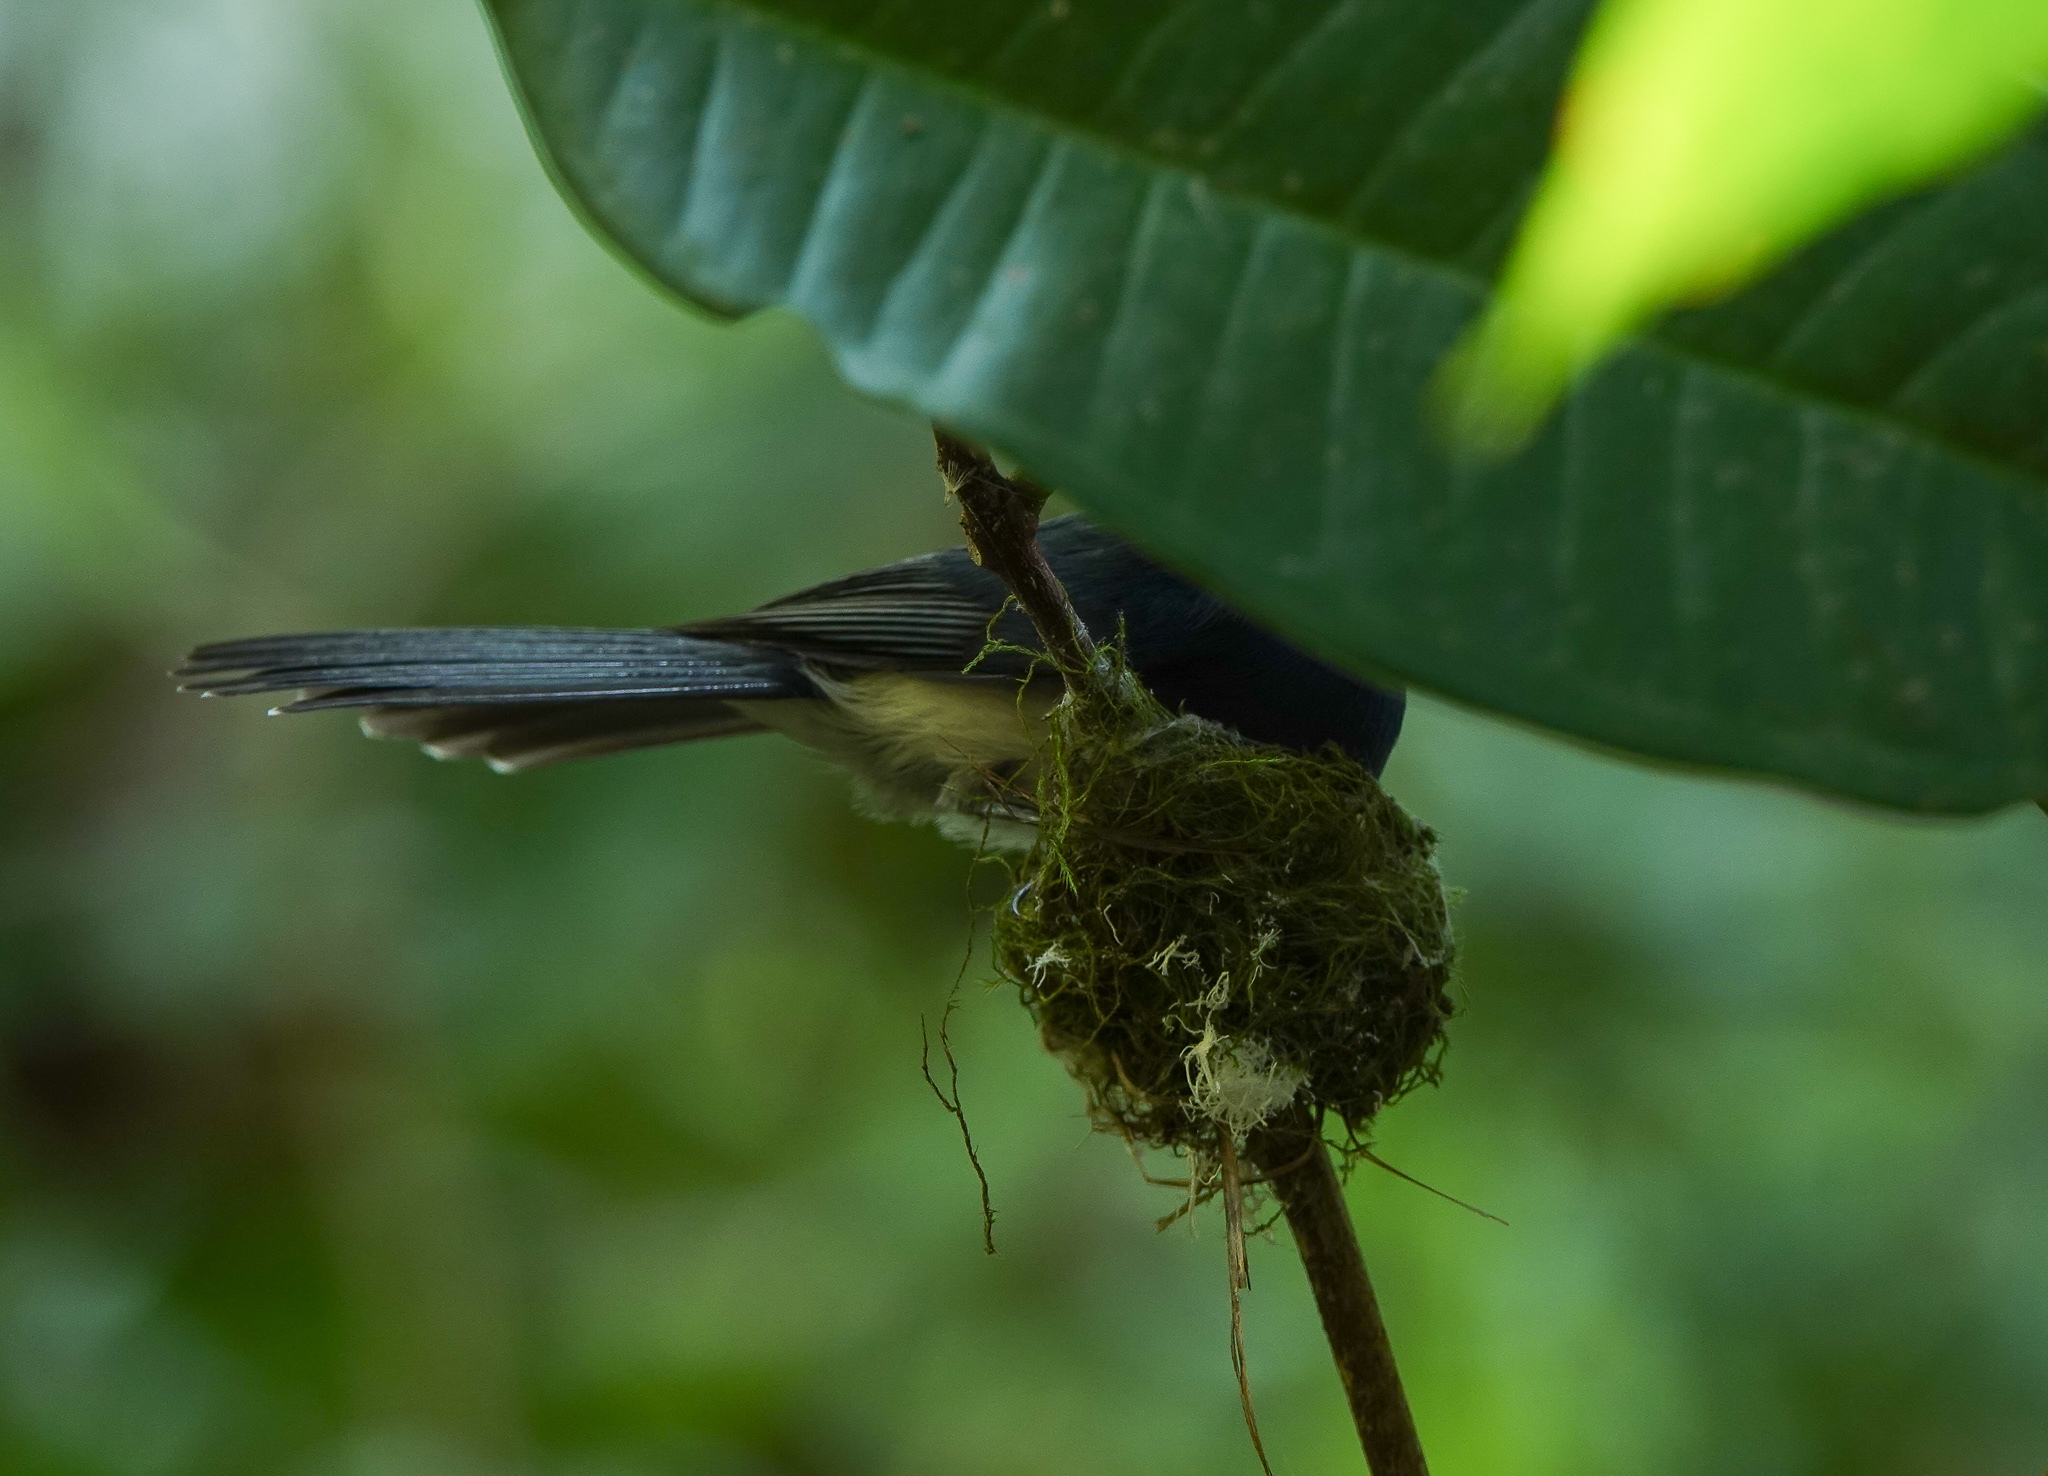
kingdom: Animalia
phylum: Chordata
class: Aves
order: Passeriformes
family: Monarchidae
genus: Hypothymis
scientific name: Hypothymis azurea
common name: Black-naped monarch
